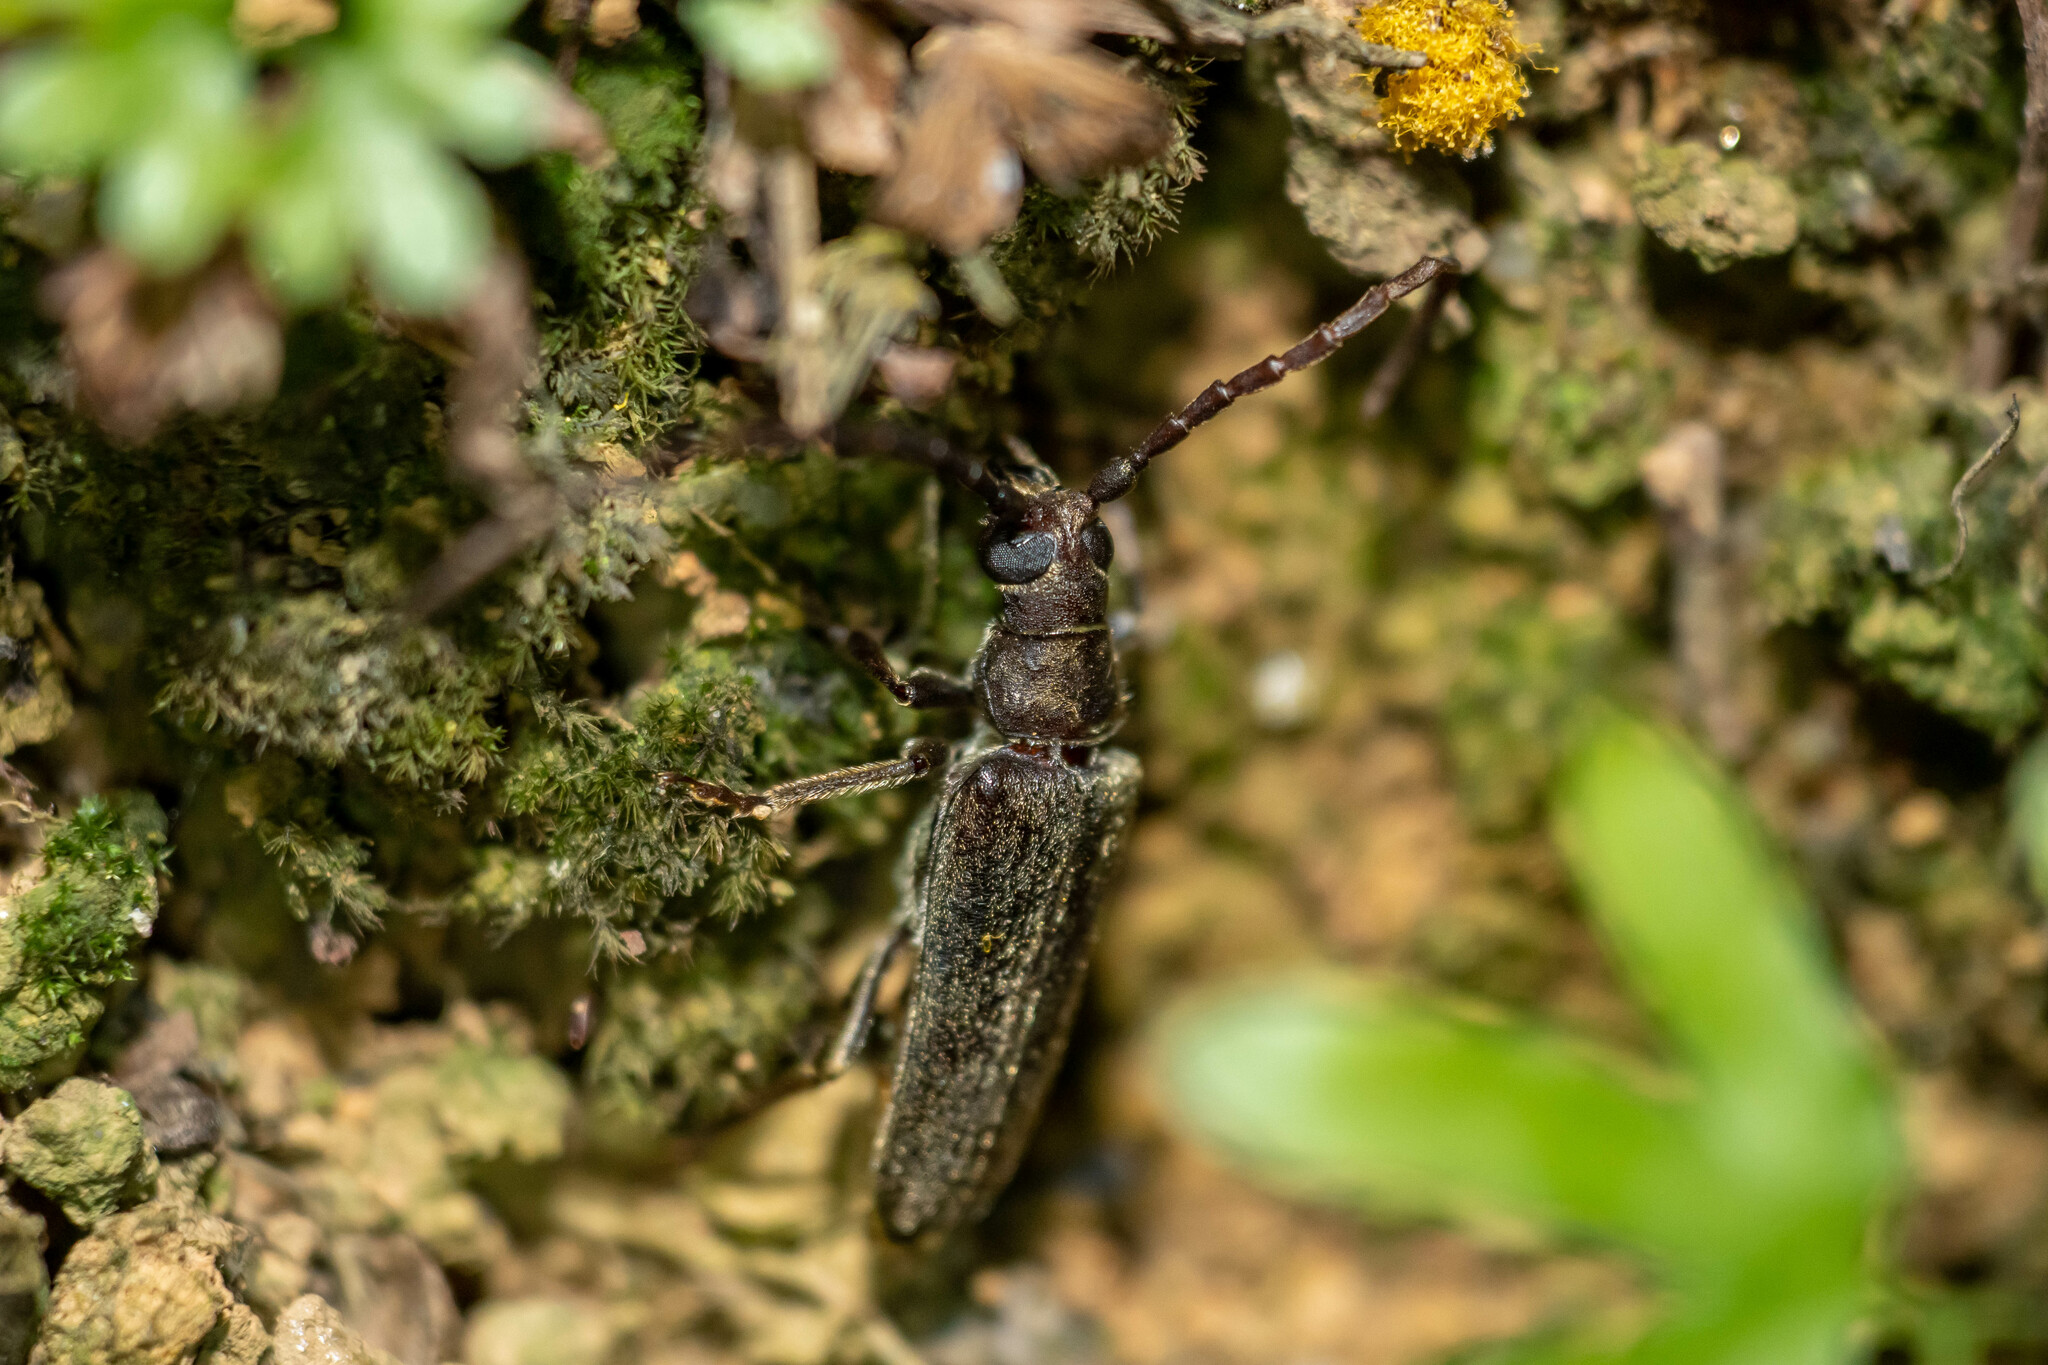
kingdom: Animalia
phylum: Arthropoda
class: Insecta
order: Coleoptera
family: Cerambycidae
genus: Philus
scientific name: Philus antennatus
